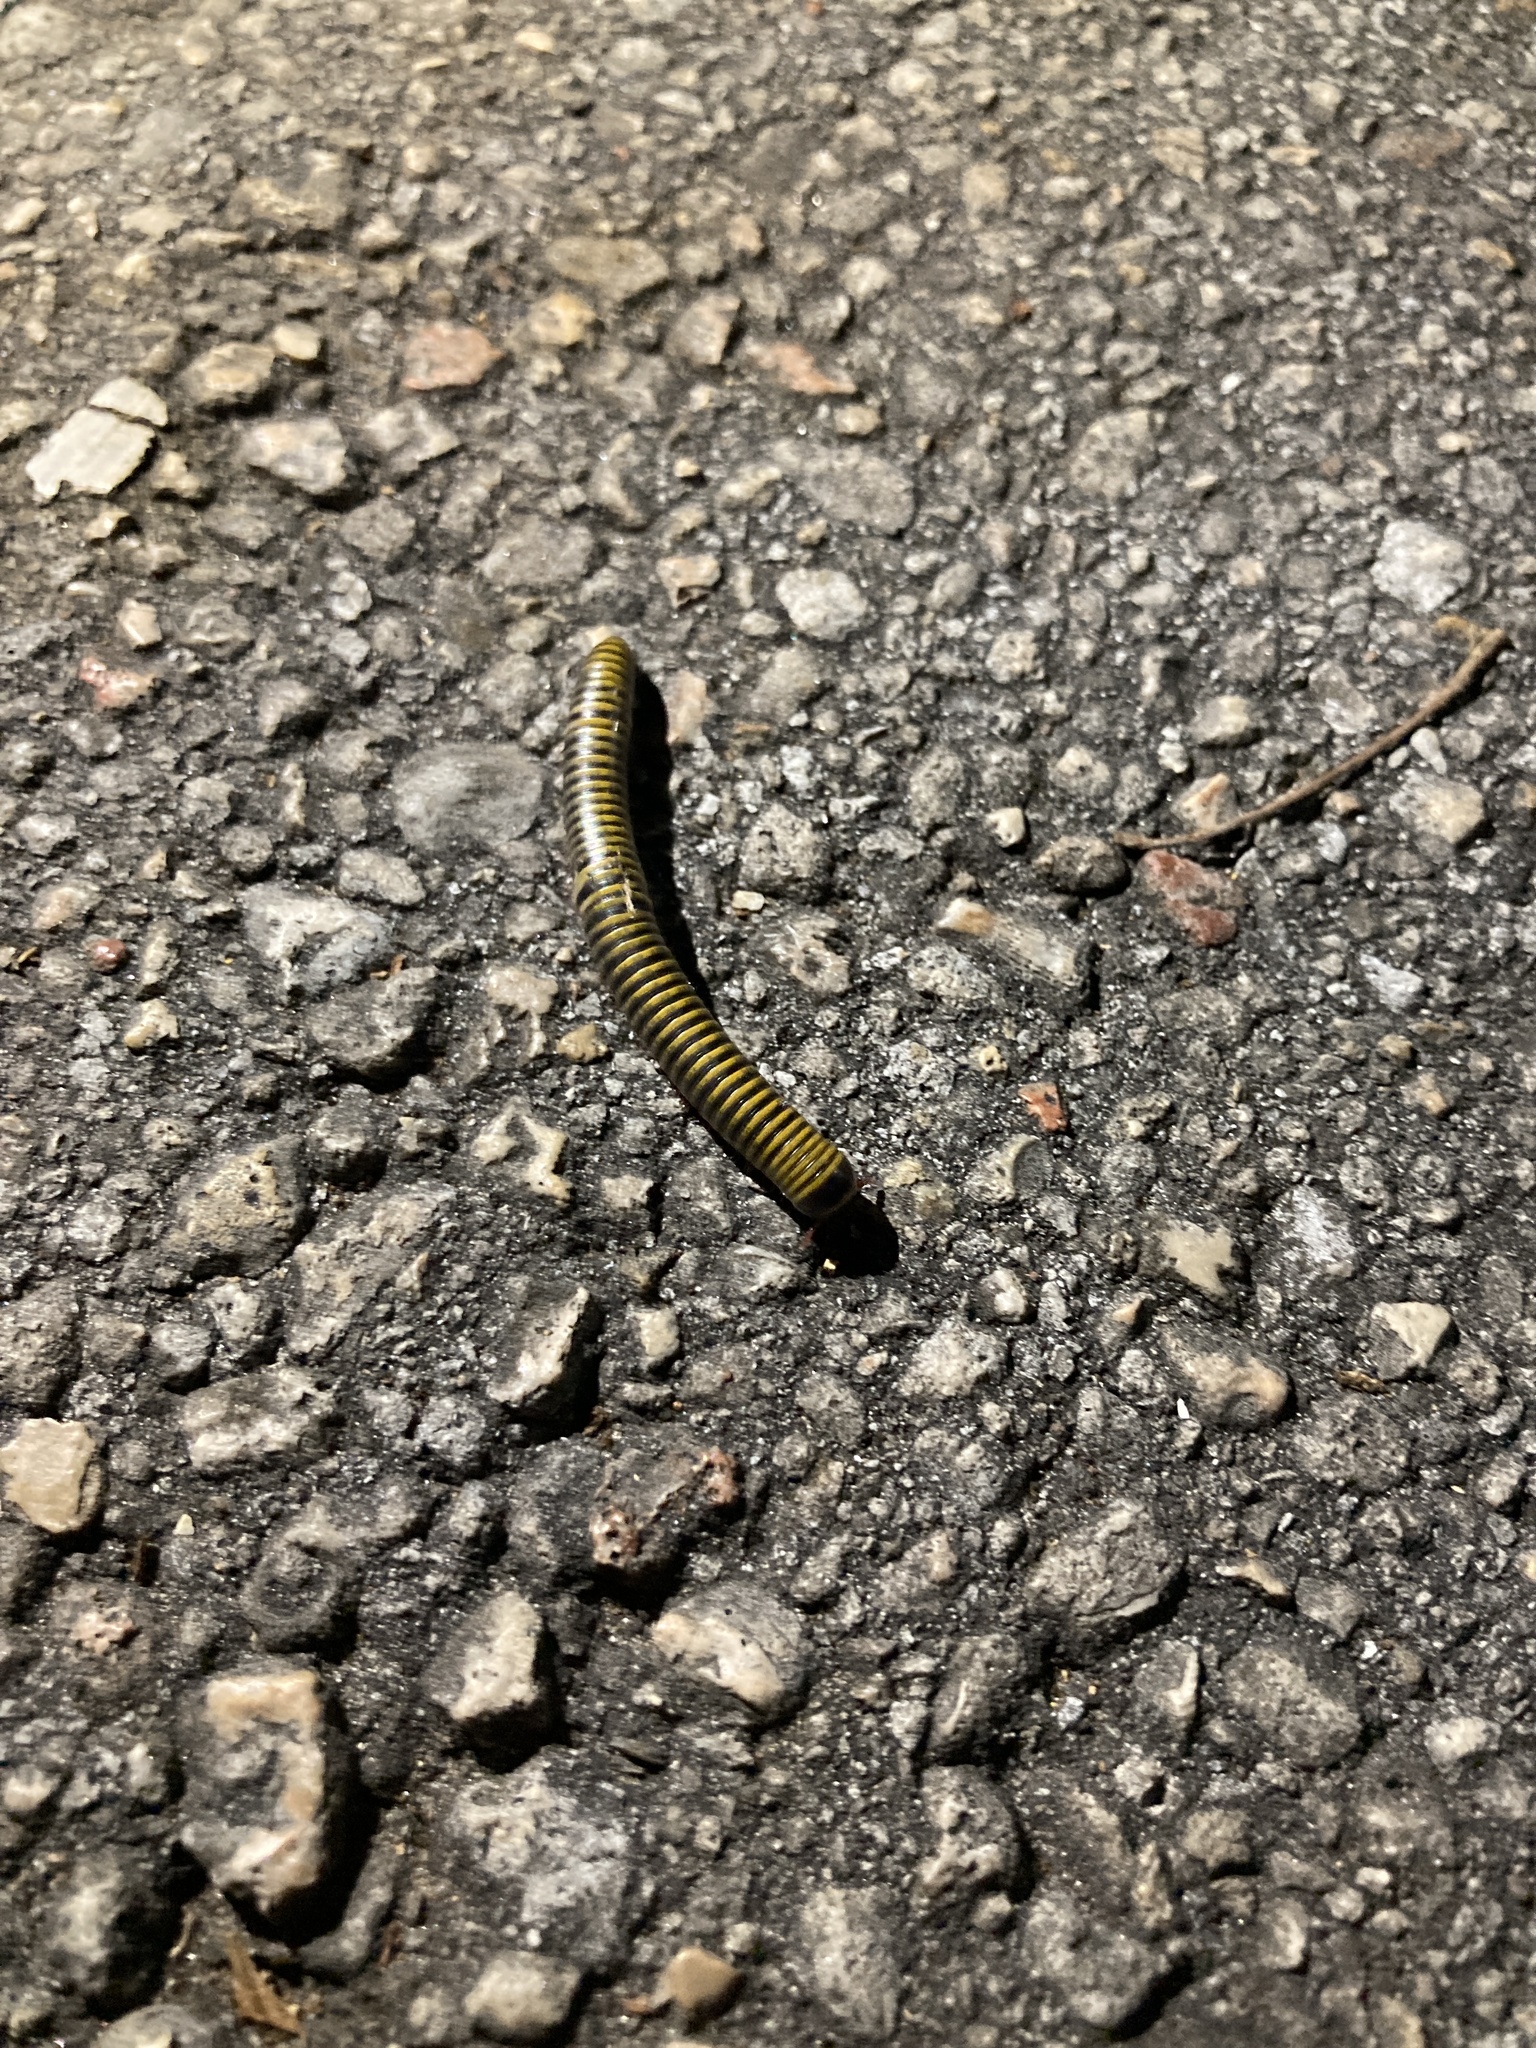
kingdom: Animalia
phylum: Arthropoda
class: Diplopoda
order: Spirobolida
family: Rhinocricidae
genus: Anadenobolus
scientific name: Anadenobolus monilicornis
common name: Caribbean millipede
